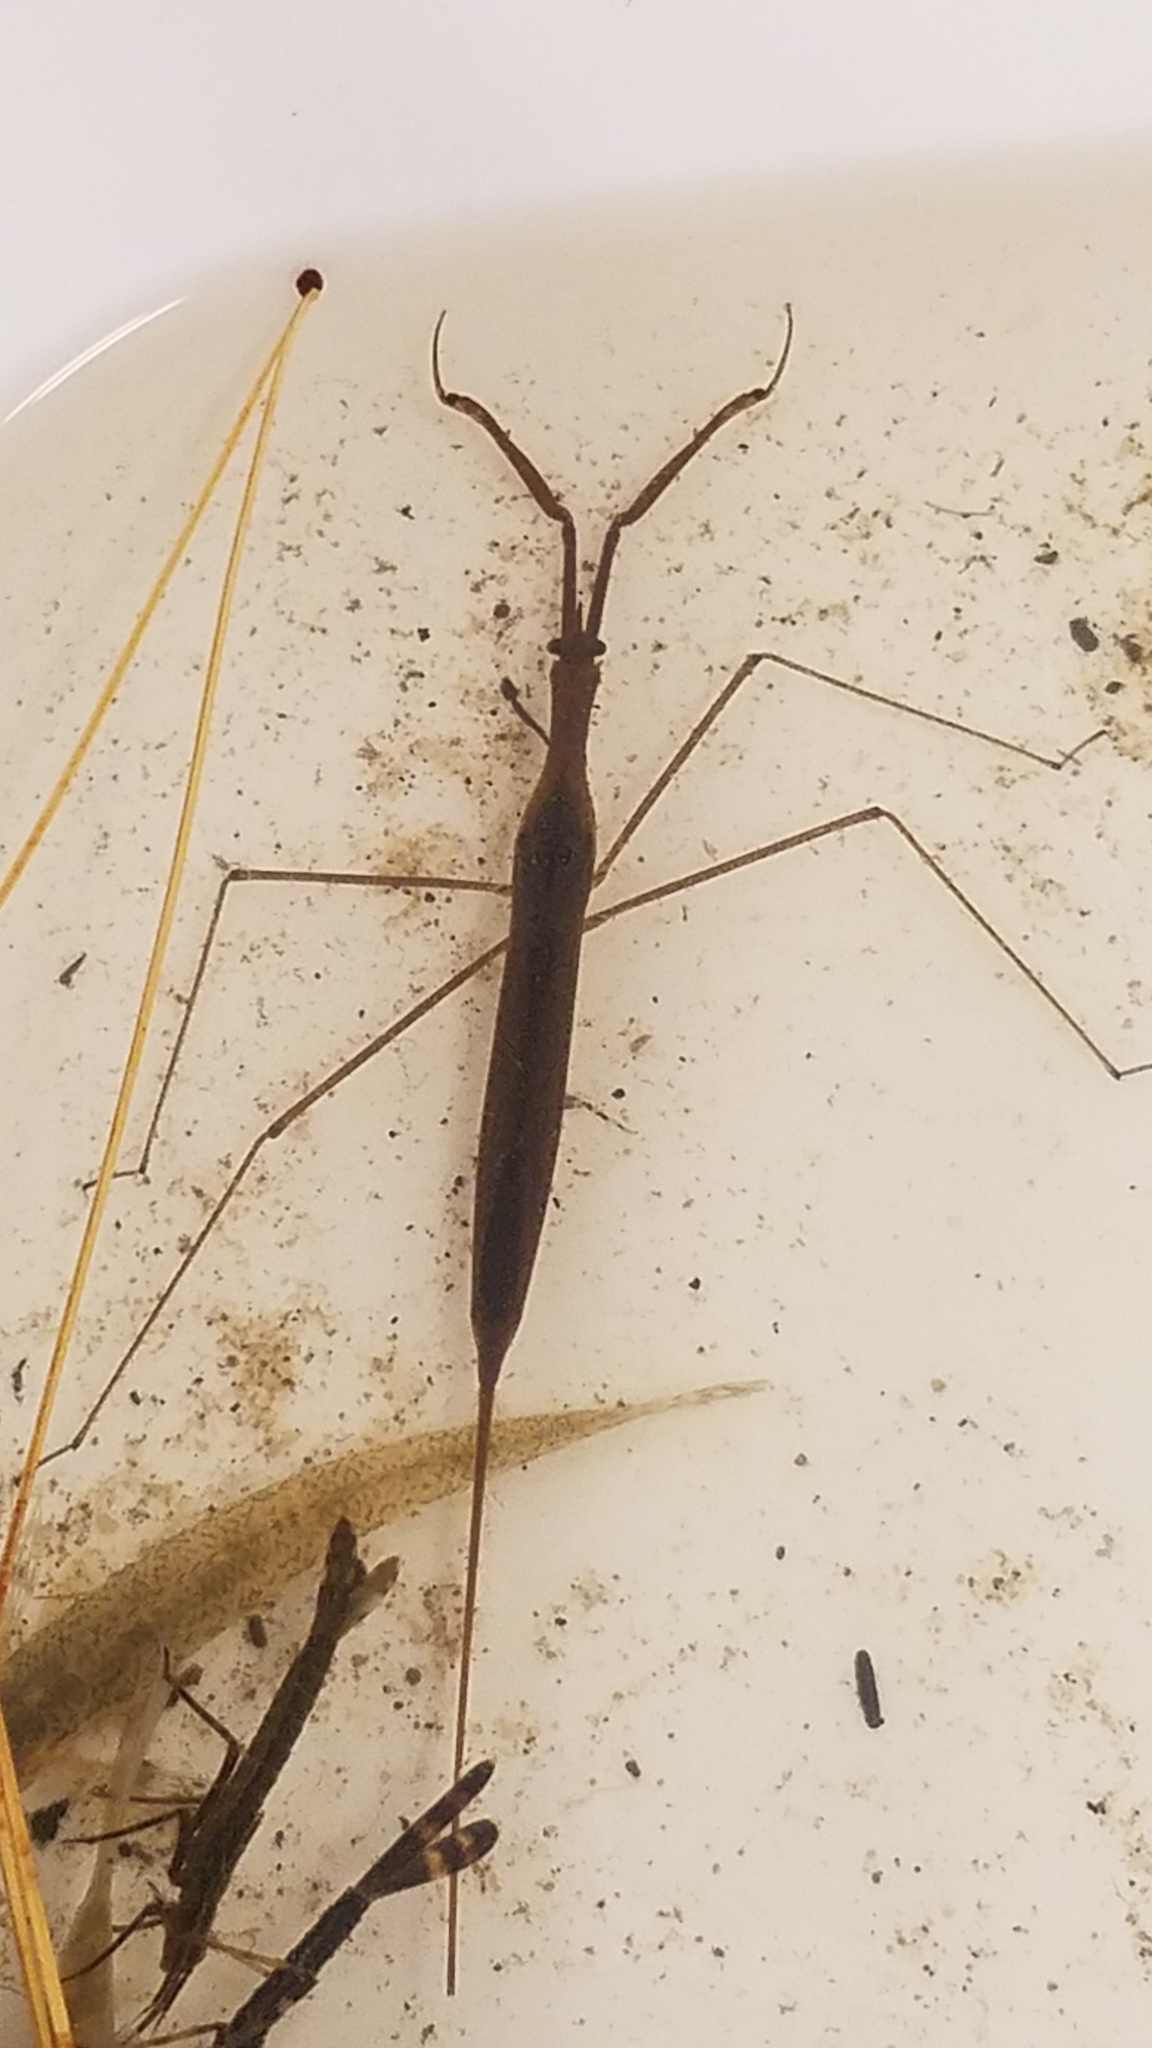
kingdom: Animalia
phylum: Arthropoda
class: Insecta
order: Hemiptera
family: Nepidae
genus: Ranatra
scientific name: Ranatra fusca
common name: Brown waterscorpion
